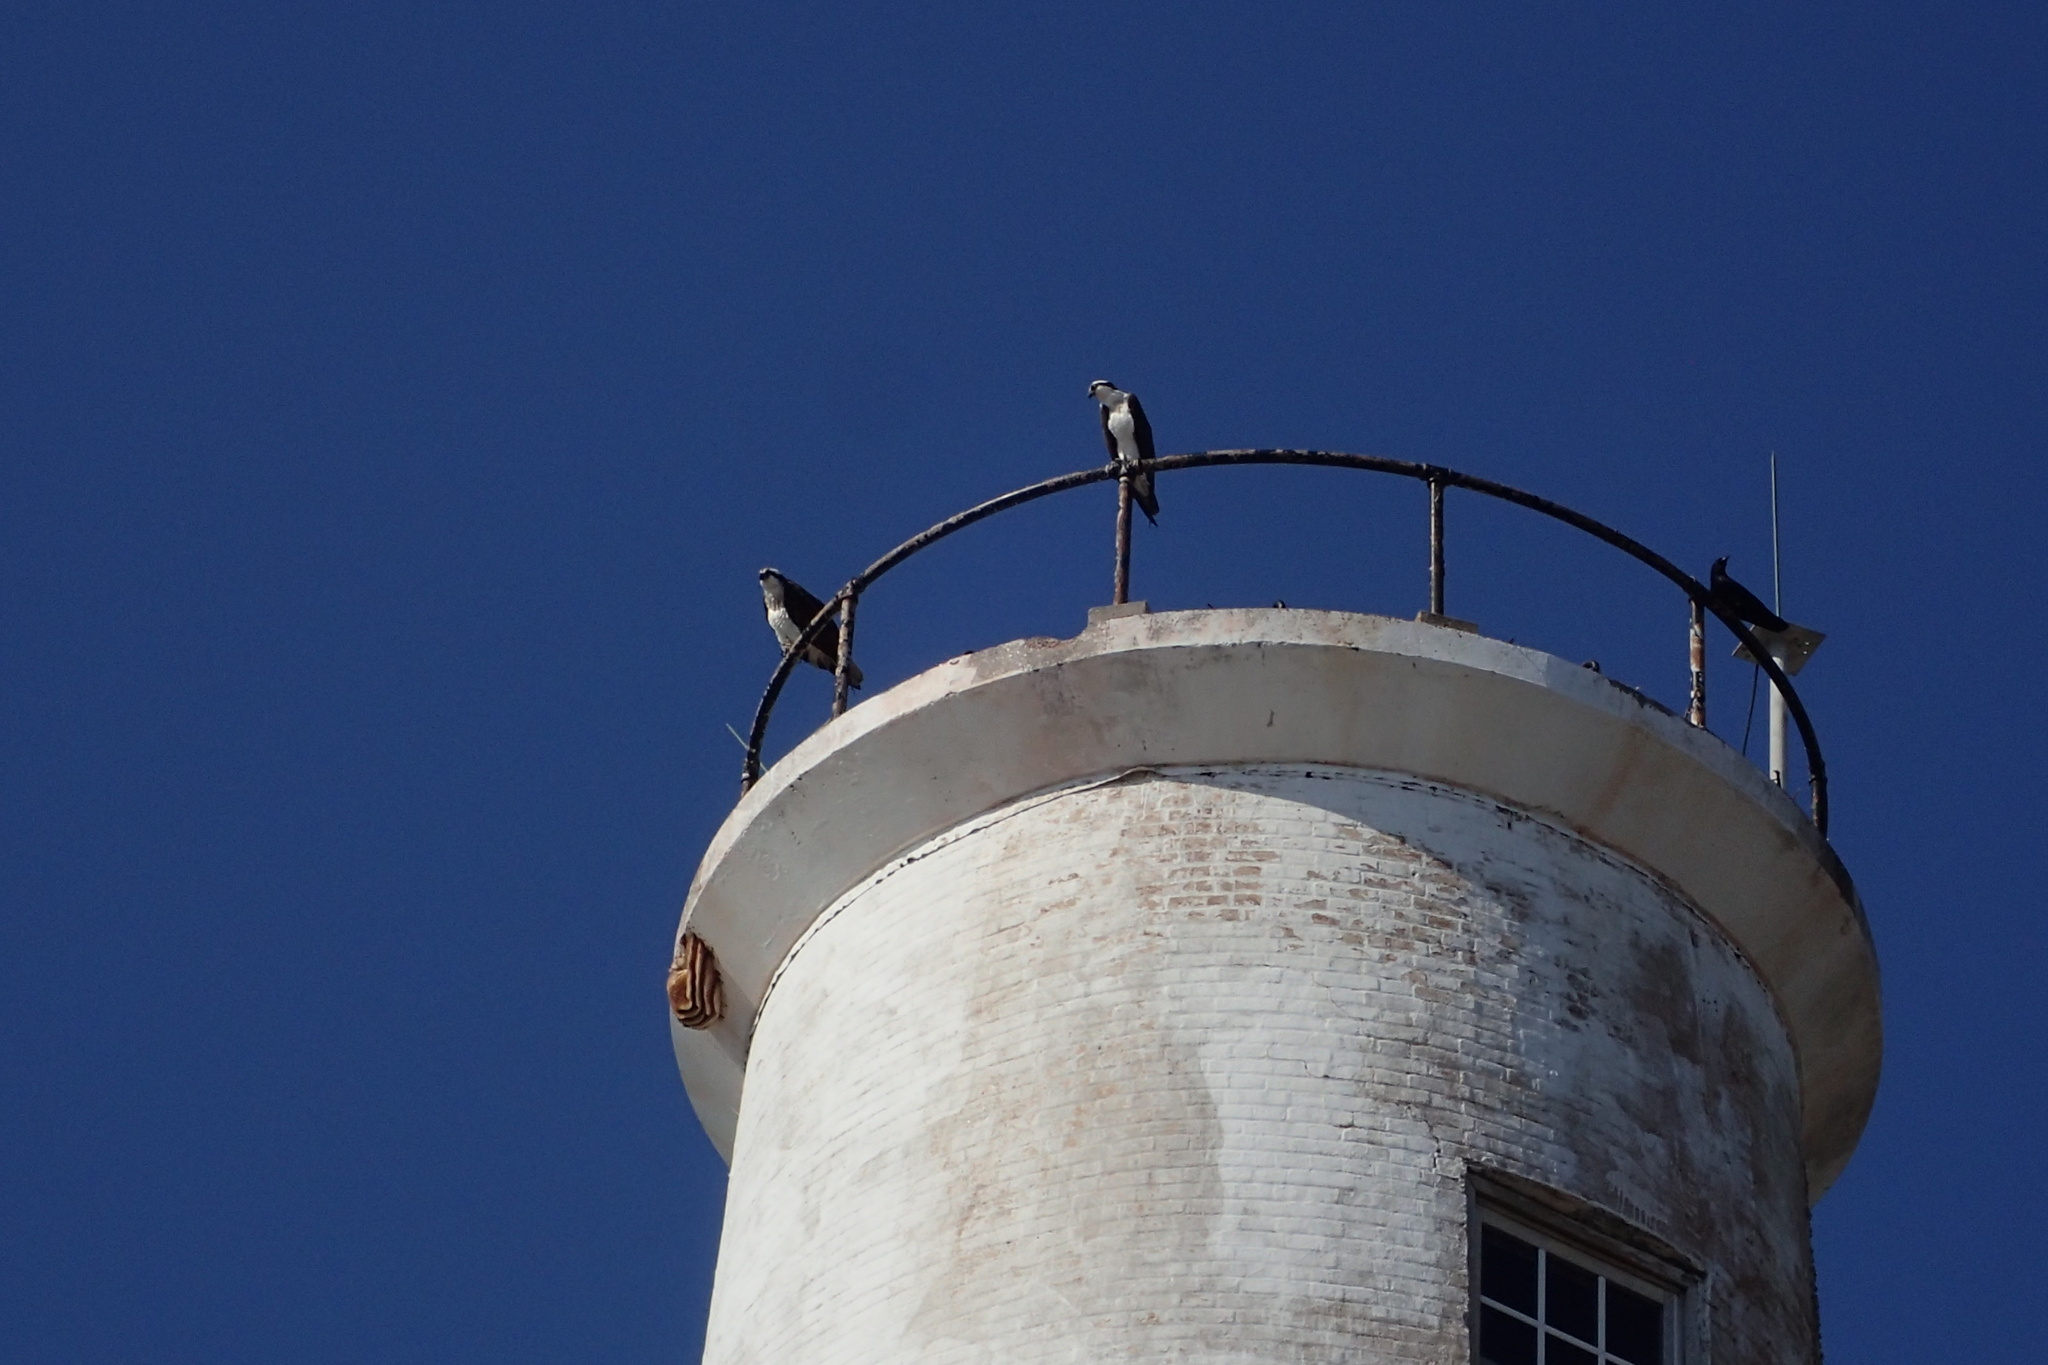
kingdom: Animalia
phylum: Chordata
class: Aves
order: Accipitriformes
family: Pandionidae
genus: Pandion
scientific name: Pandion haliaetus
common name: Osprey
